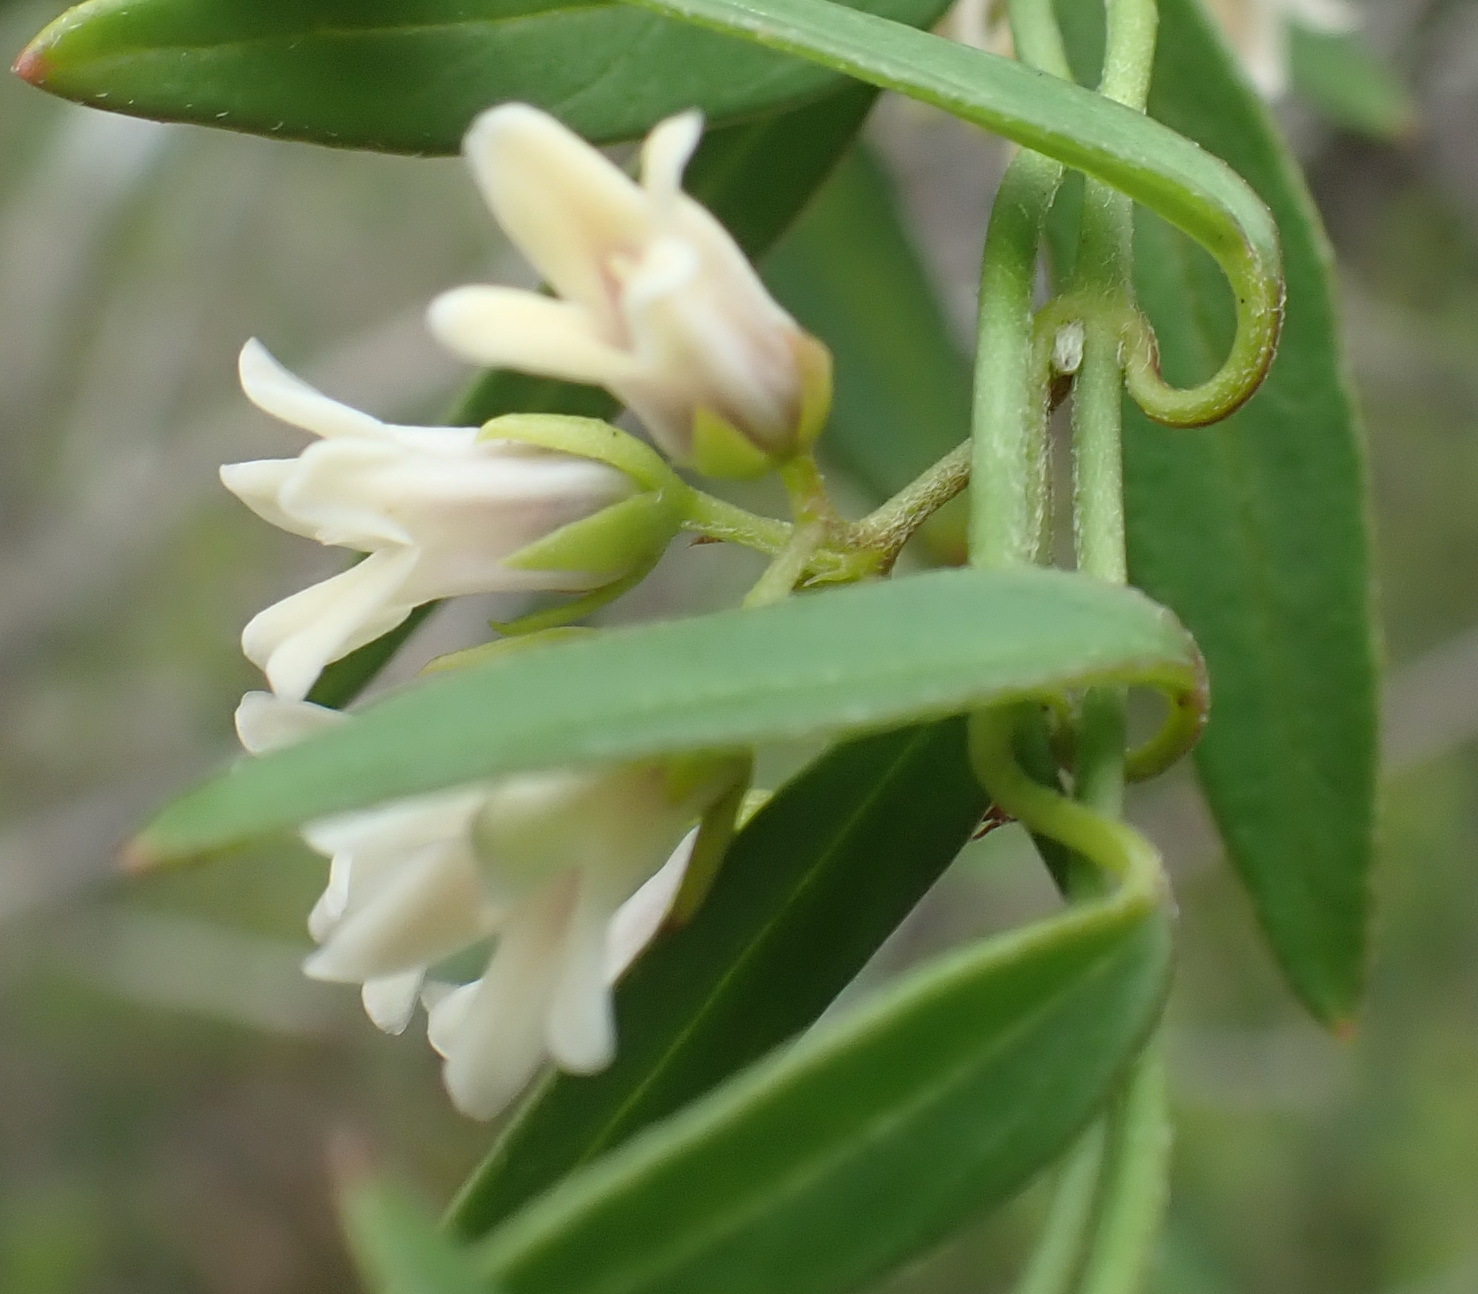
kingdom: Plantae
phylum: Tracheophyta
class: Magnoliopsida
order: Gentianales
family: Apocynaceae
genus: Astephanus
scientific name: Astephanus triflorus
